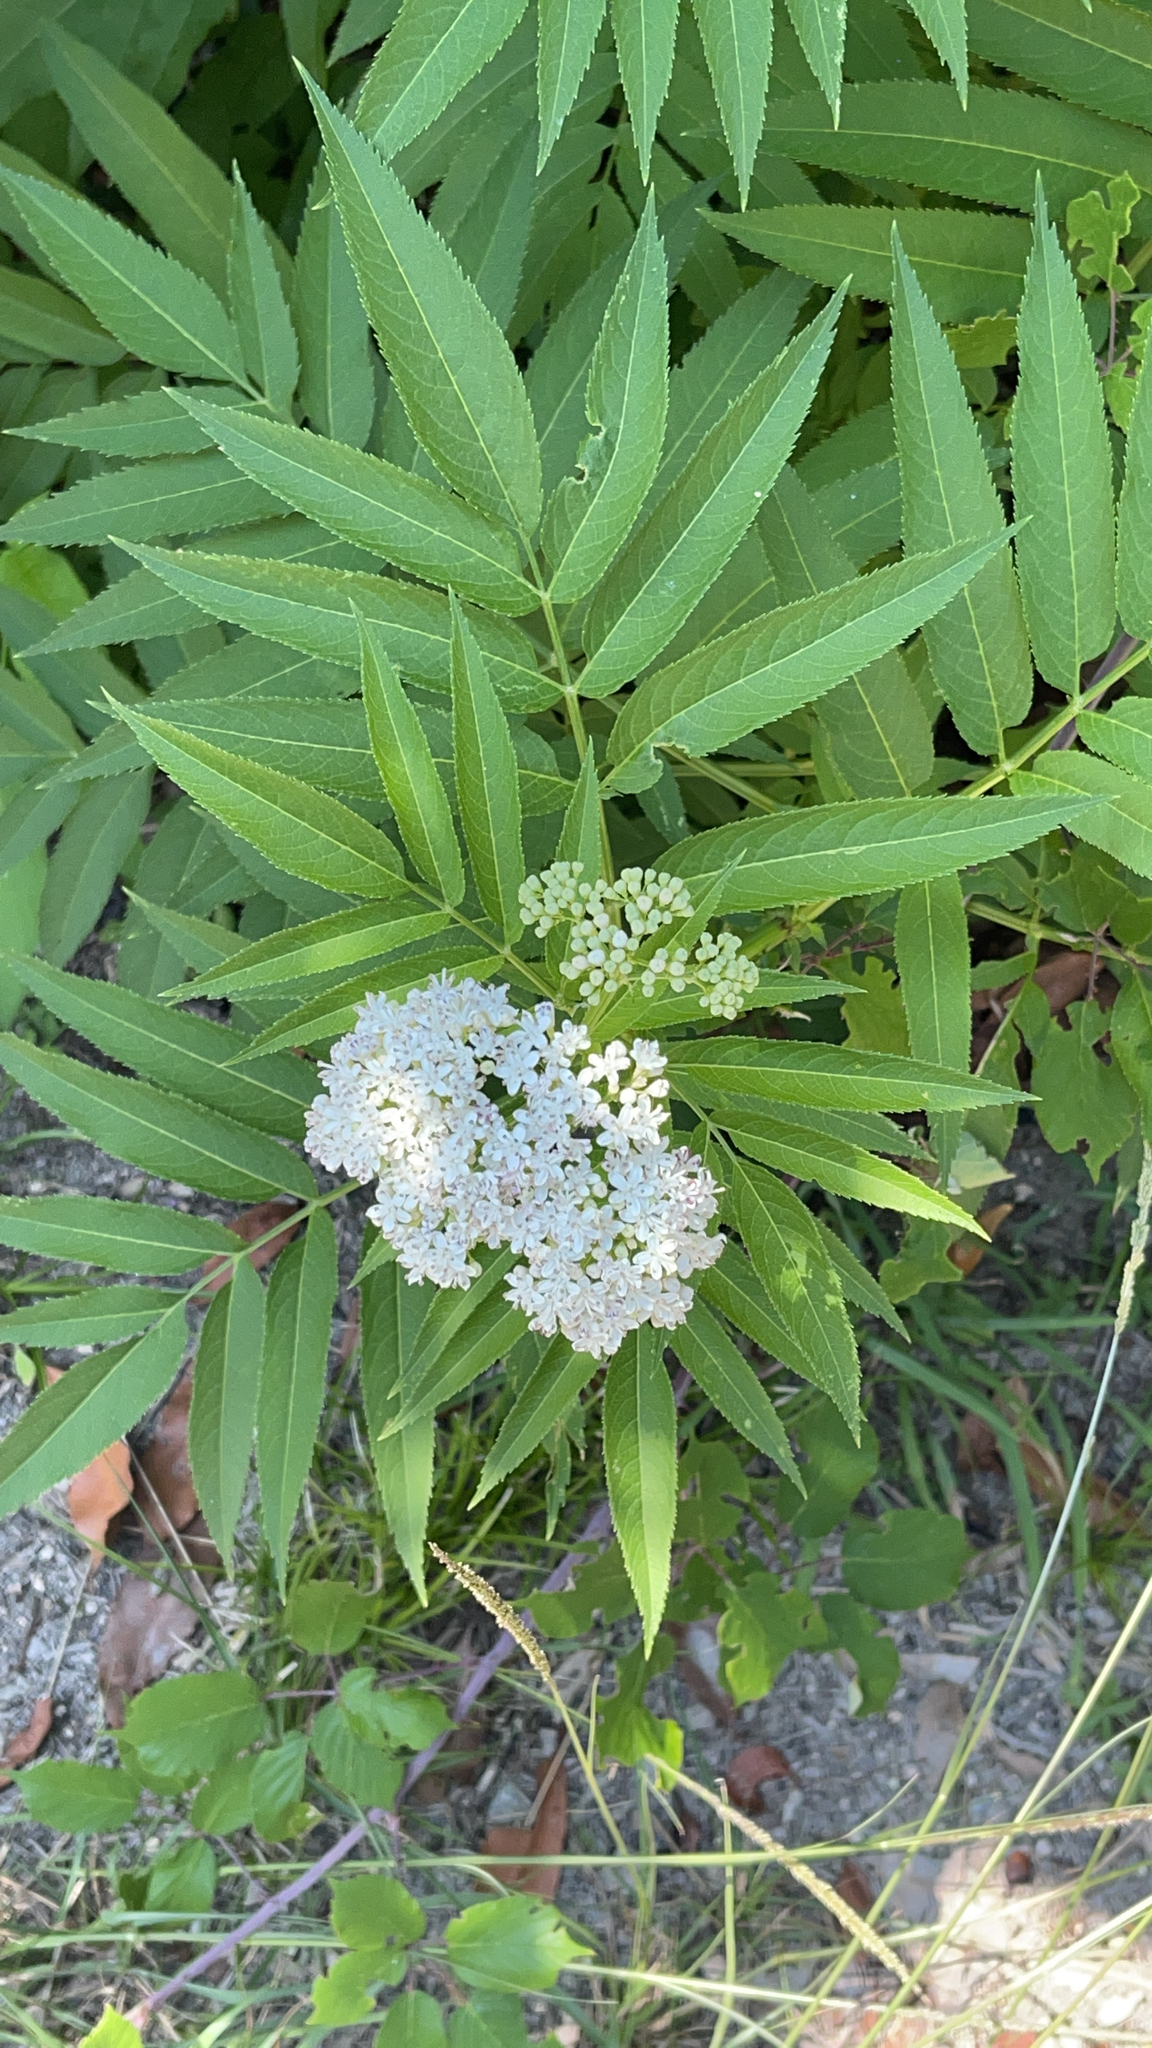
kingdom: Plantae
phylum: Tracheophyta
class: Magnoliopsida
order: Dipsacales
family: Viburnaceae
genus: Sambucus
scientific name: Sambucus ebulus
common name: Dwarf elder
